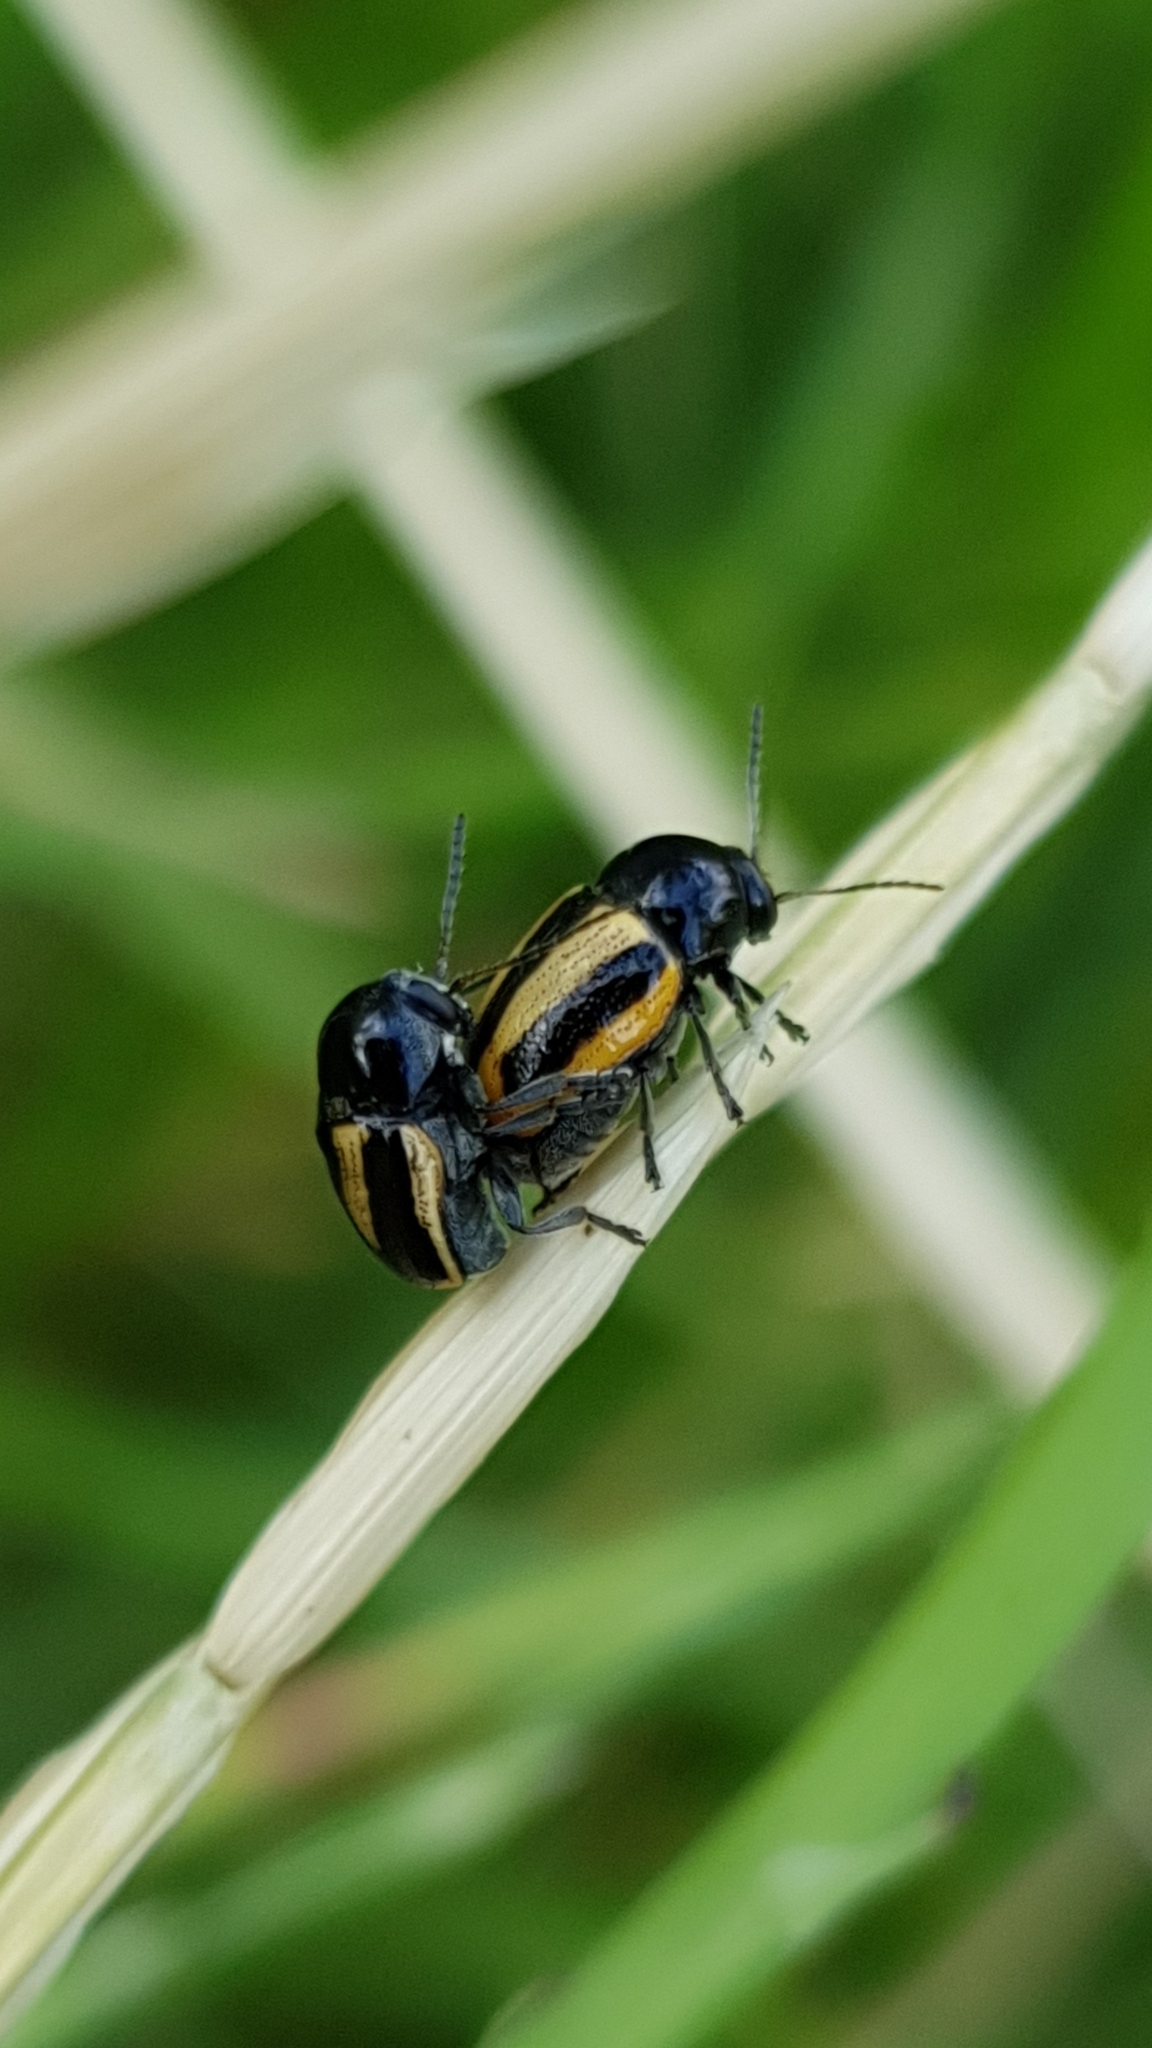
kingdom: Animalia
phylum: Arthropoda
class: Insecta
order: Coleoptera
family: Chrysomelidae
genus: Acalymma
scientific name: Acalymma vittatum
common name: Striped cucumber beetle
